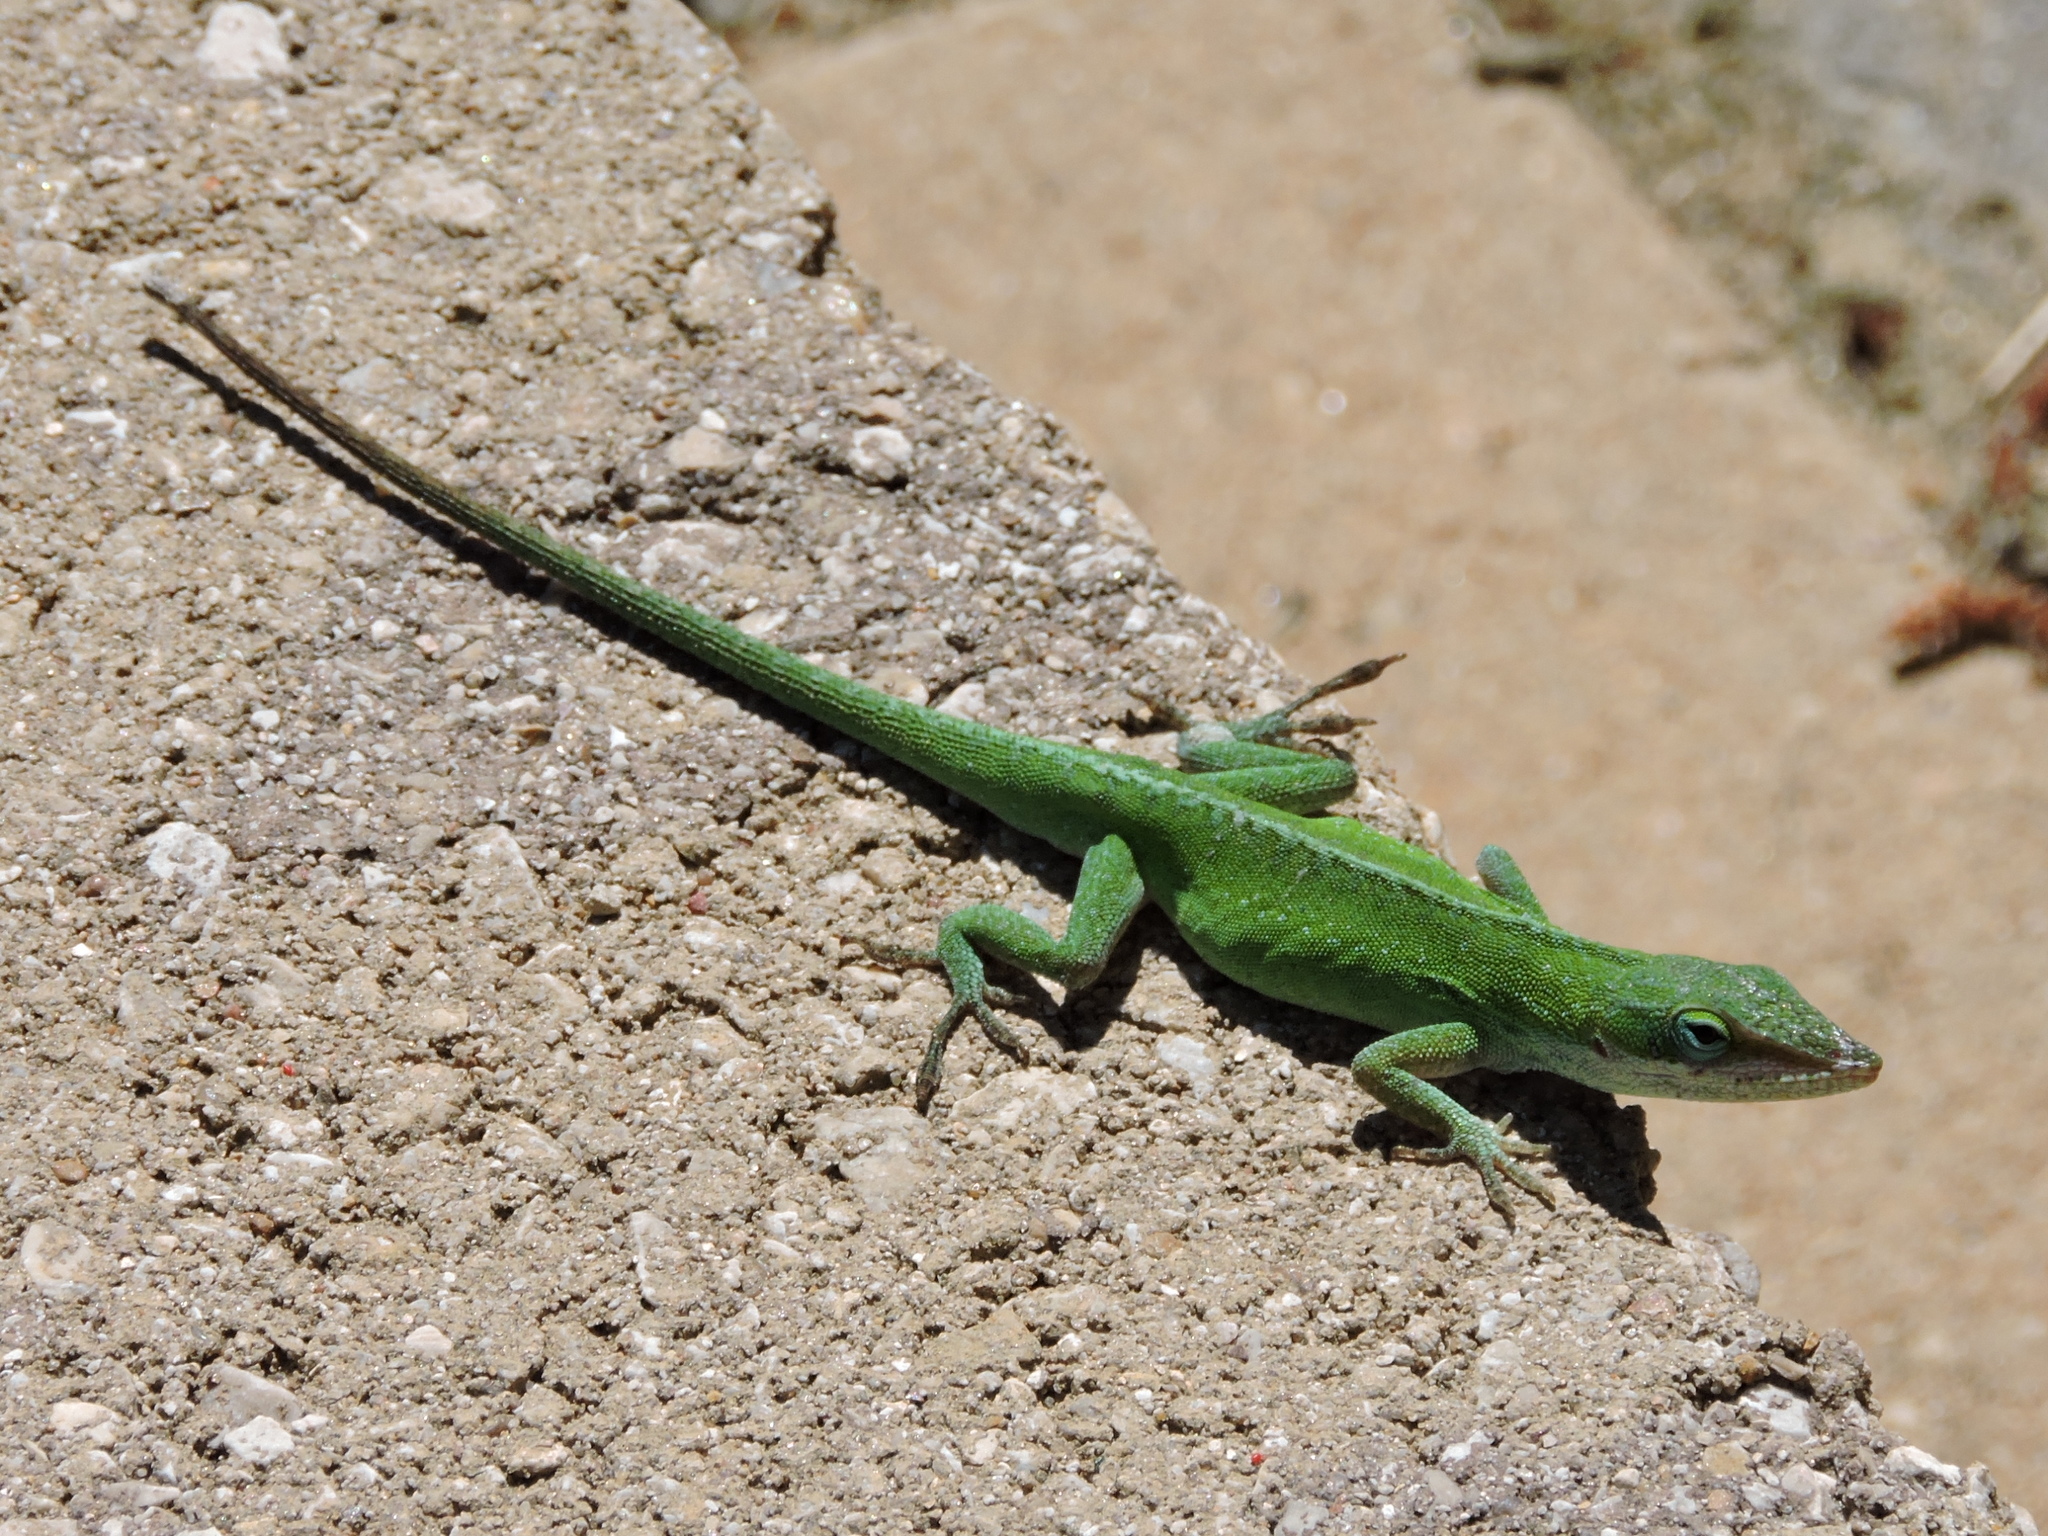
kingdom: Animalia
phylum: Chordata
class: Squamata
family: Dactyloidae
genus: Anolis
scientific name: Anolis carolinensis
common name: Green anole
